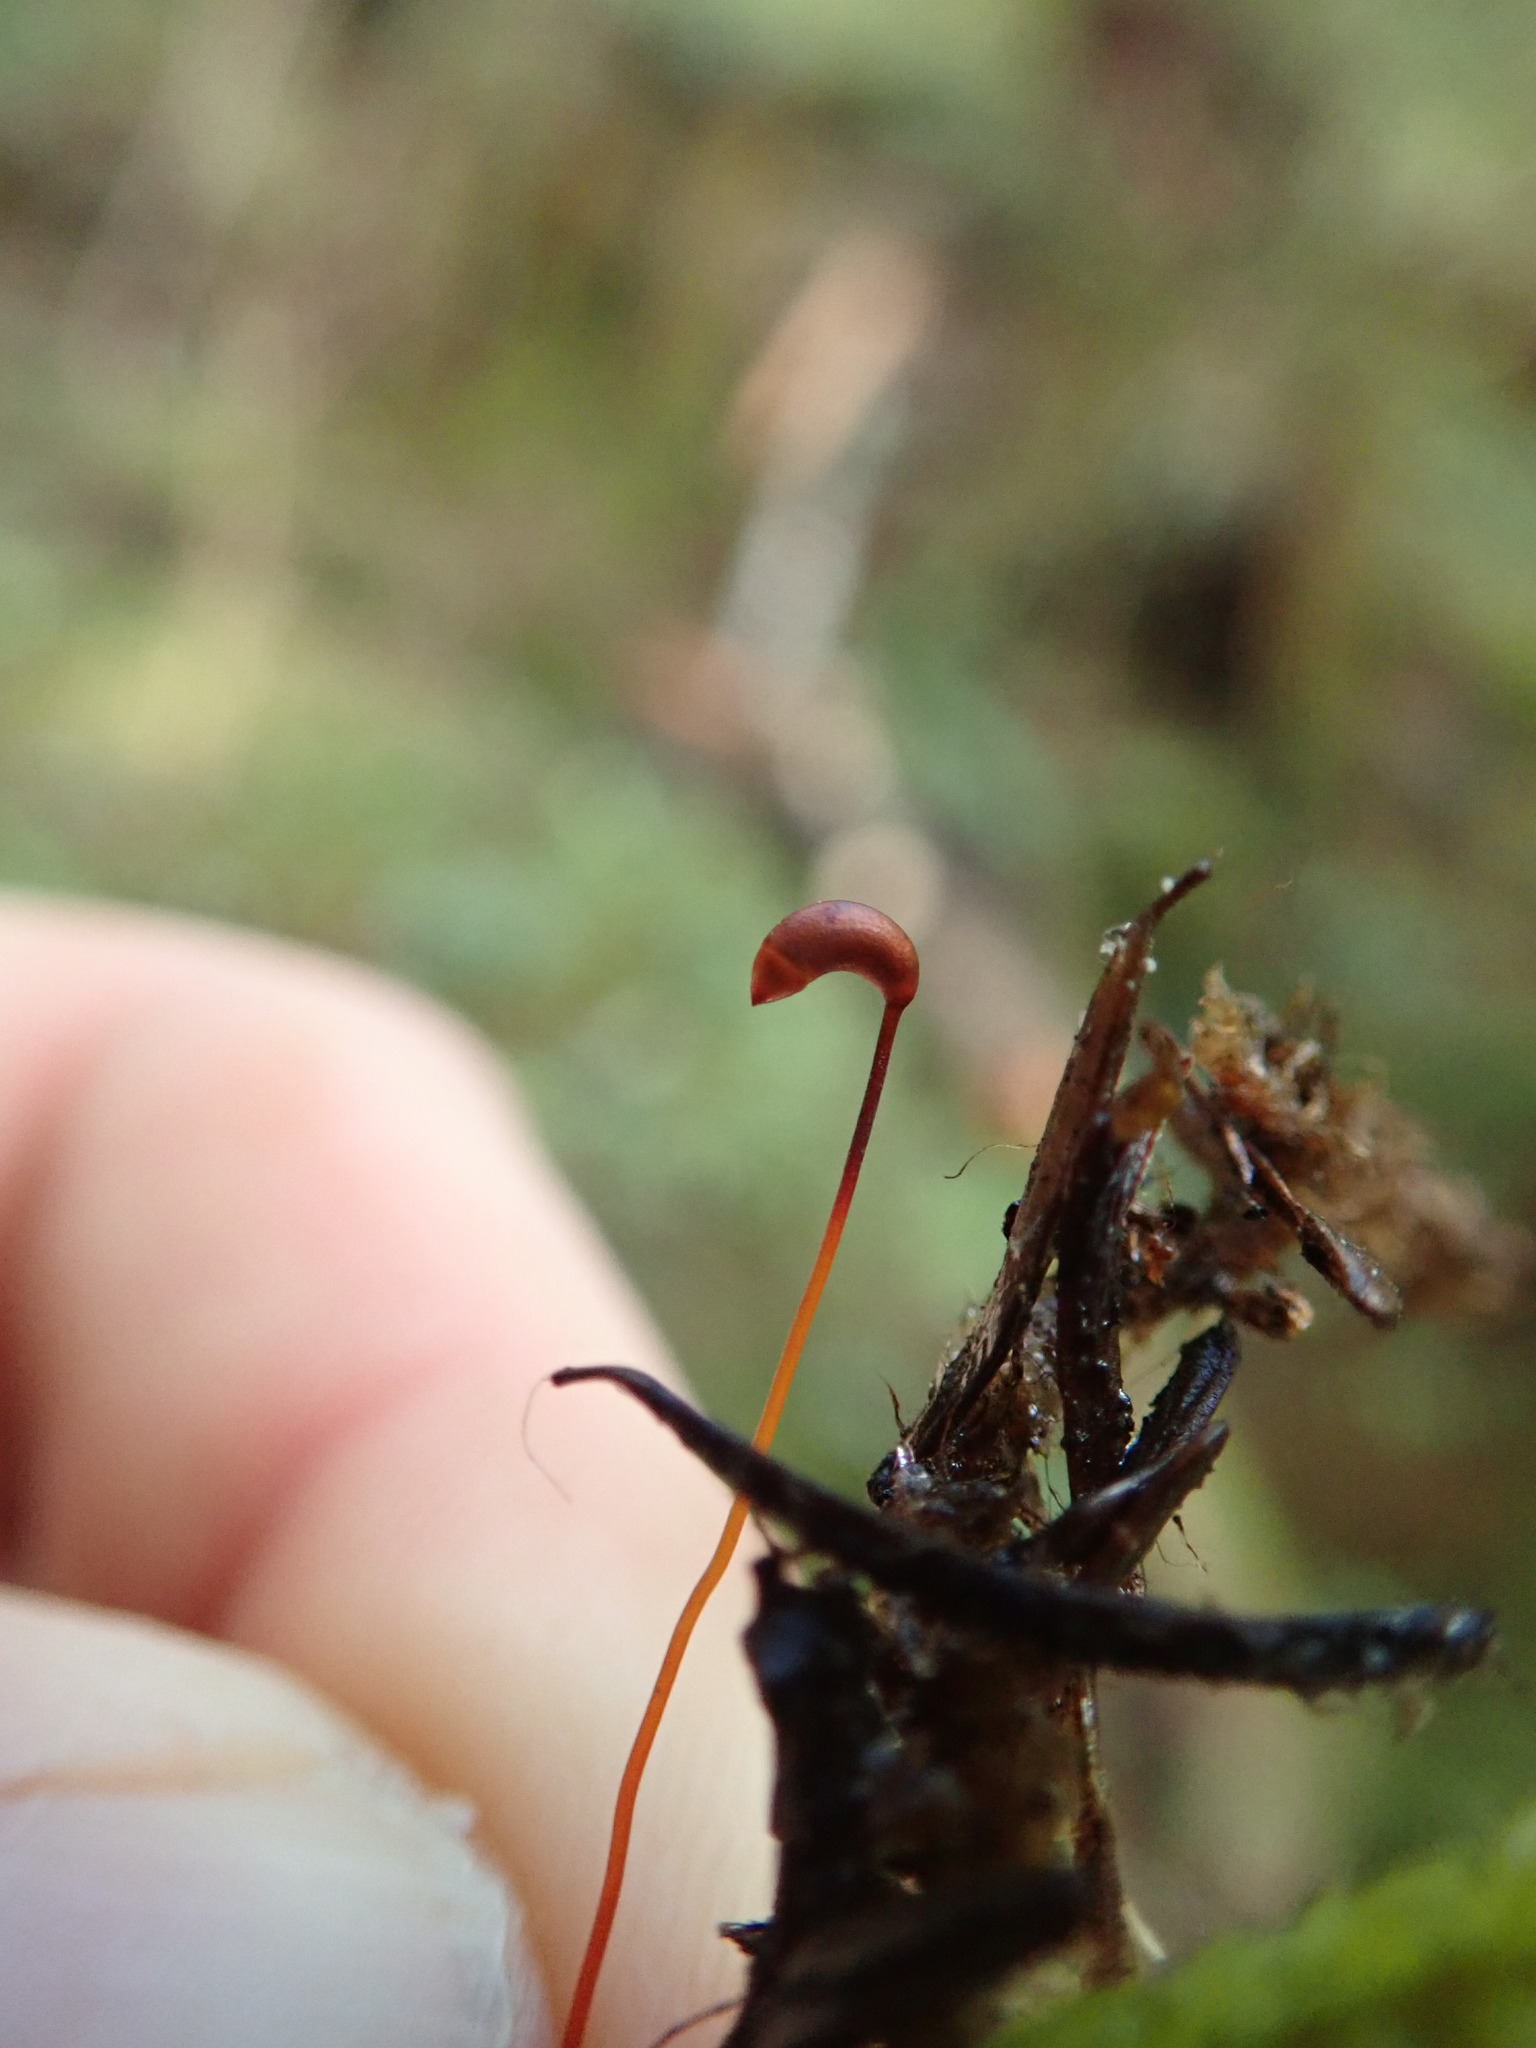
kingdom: Plantae
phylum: Bryophyta
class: Bryopsida
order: Hypnales
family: Hylocomiaceae
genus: Rhytidiopsis
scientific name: Rhytidiopsis robusta
